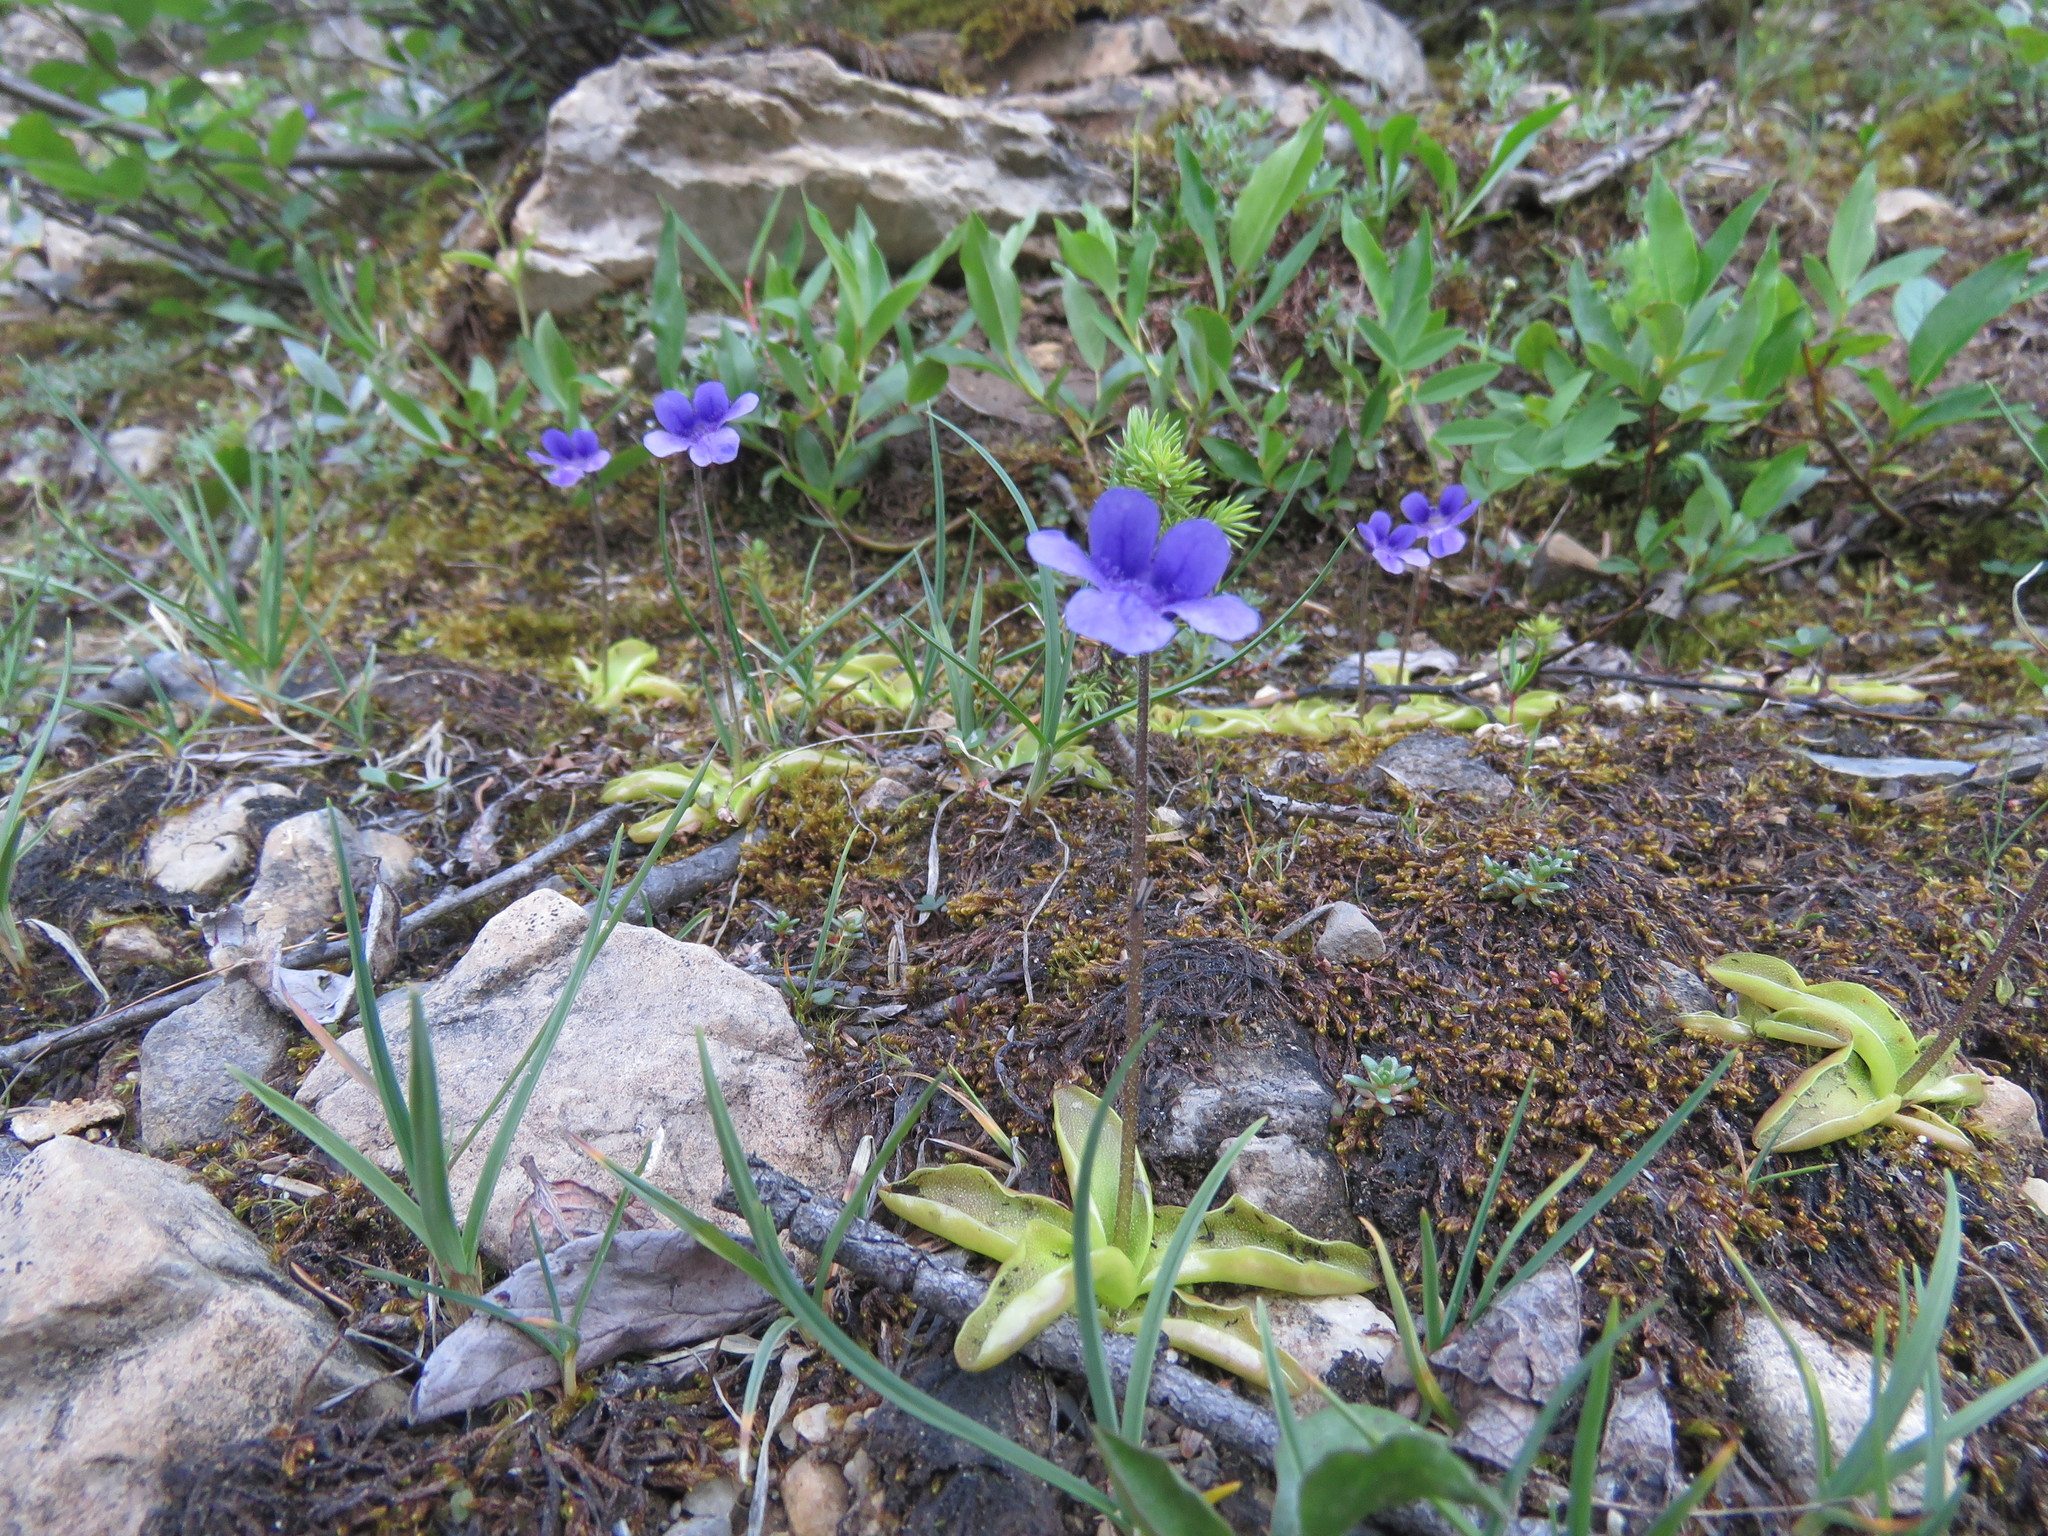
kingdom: Plantae
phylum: Tracheophyta
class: Magnoliopsida
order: Lamiales
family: Lentibulariaceae
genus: Pinguicula
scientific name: Pinguicula vulgaris
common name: Common butterwort
